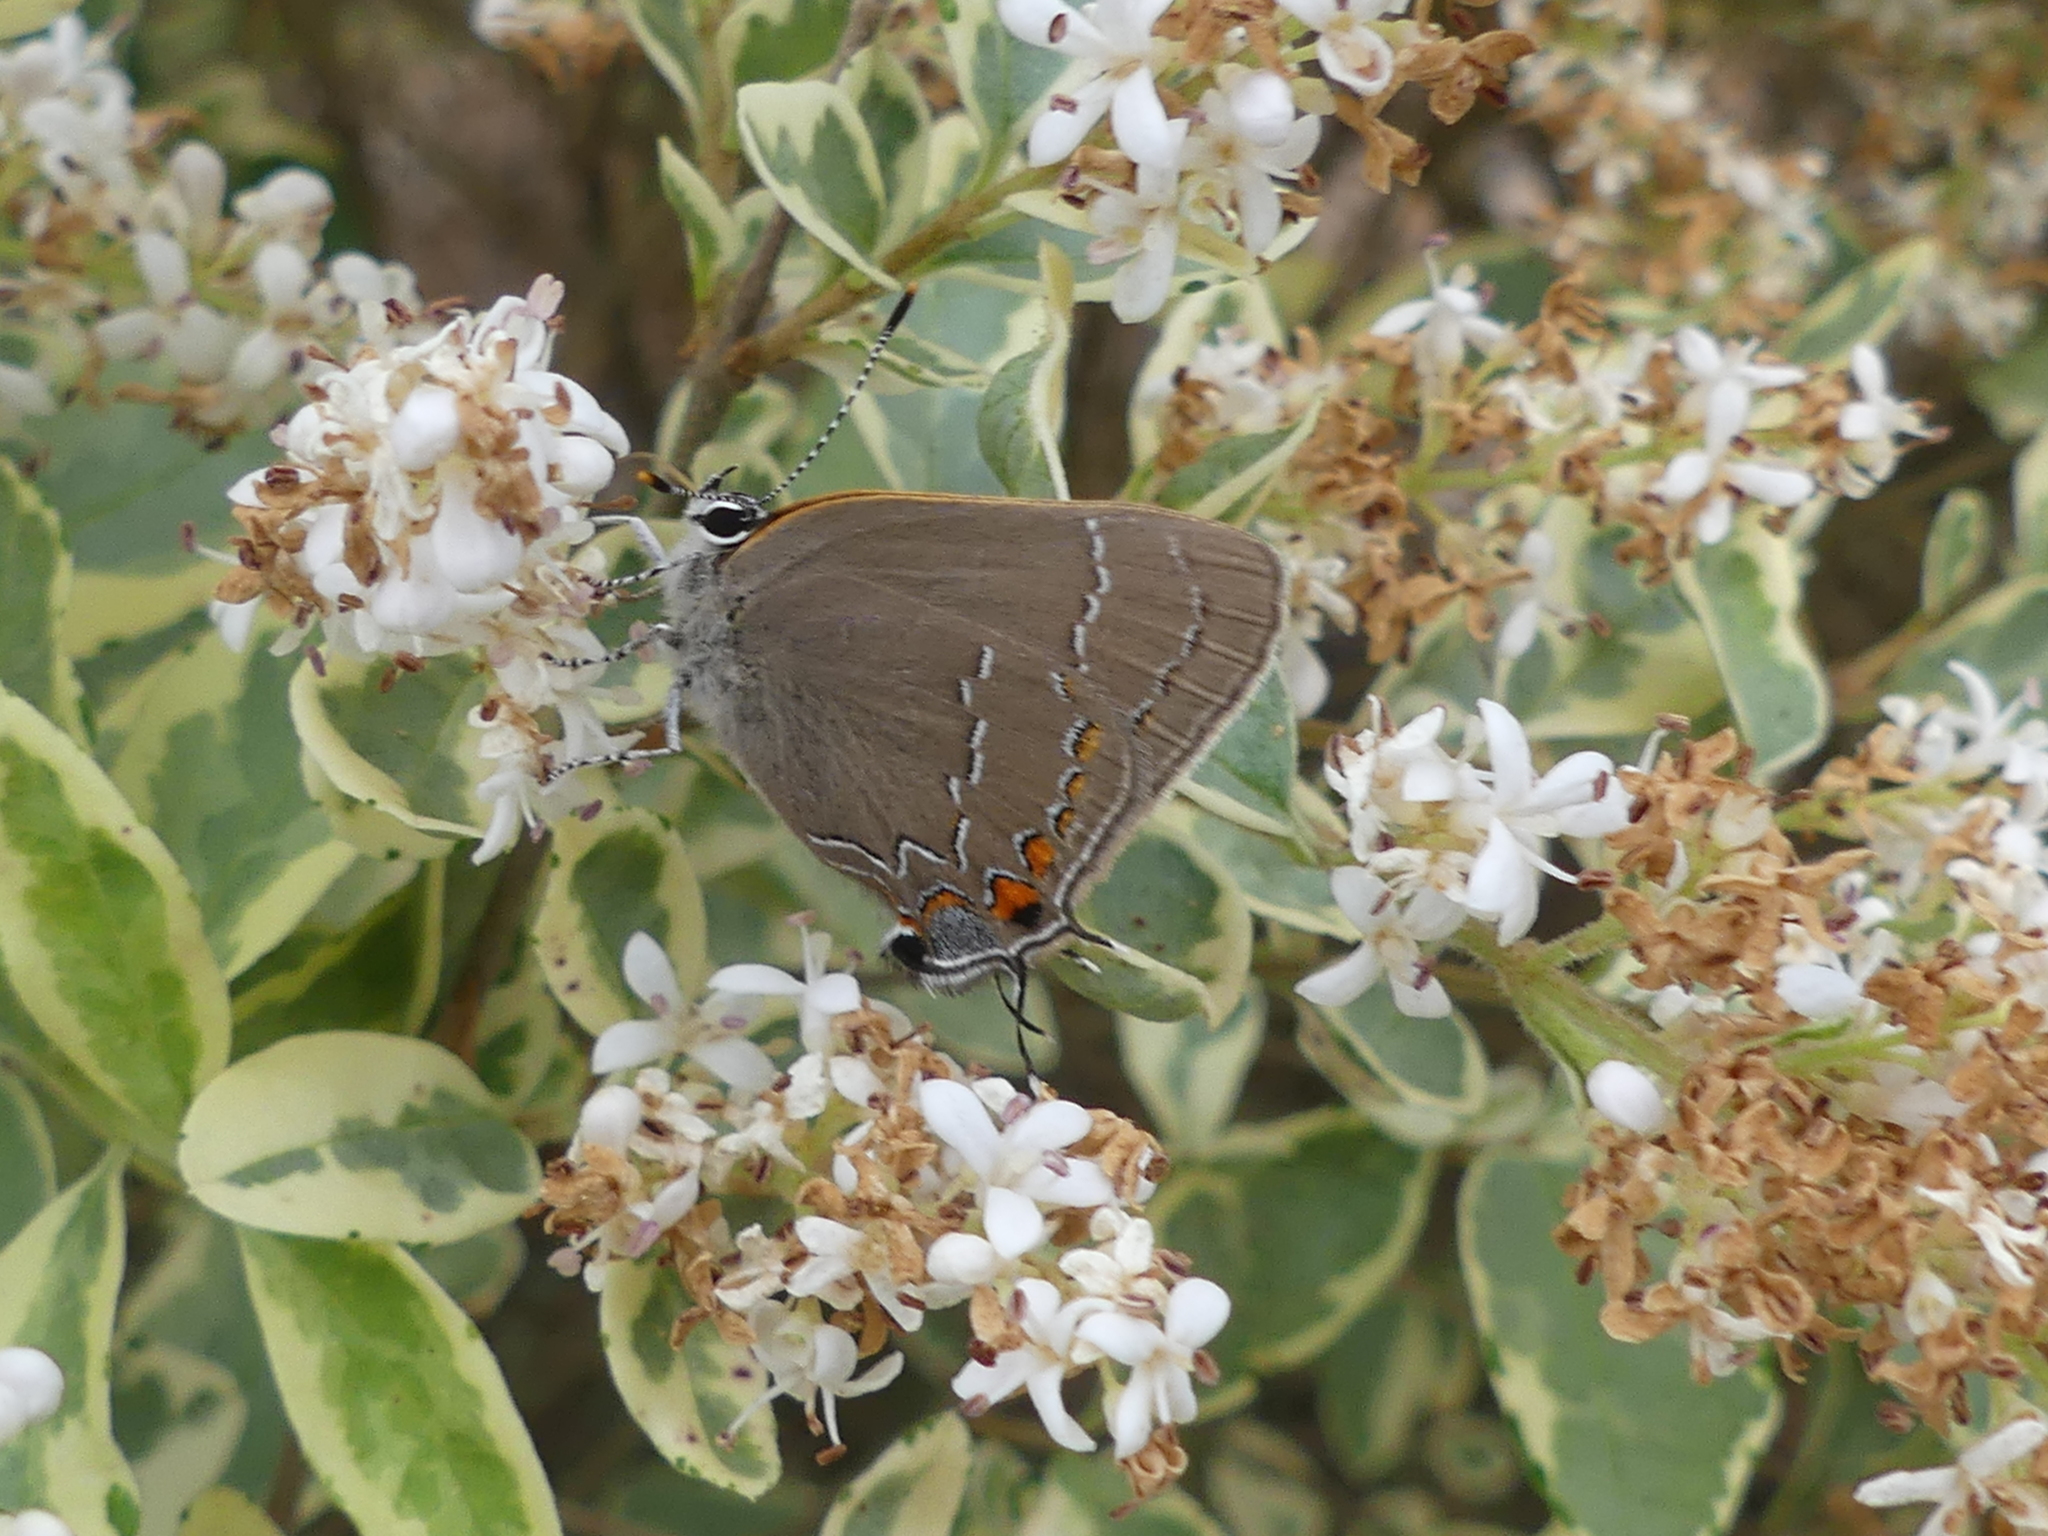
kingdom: Animalia
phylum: Arthropoda
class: Insecta
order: Lepidoptera
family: Lycaenidae
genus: Thecla
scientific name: Thecla autolycus
